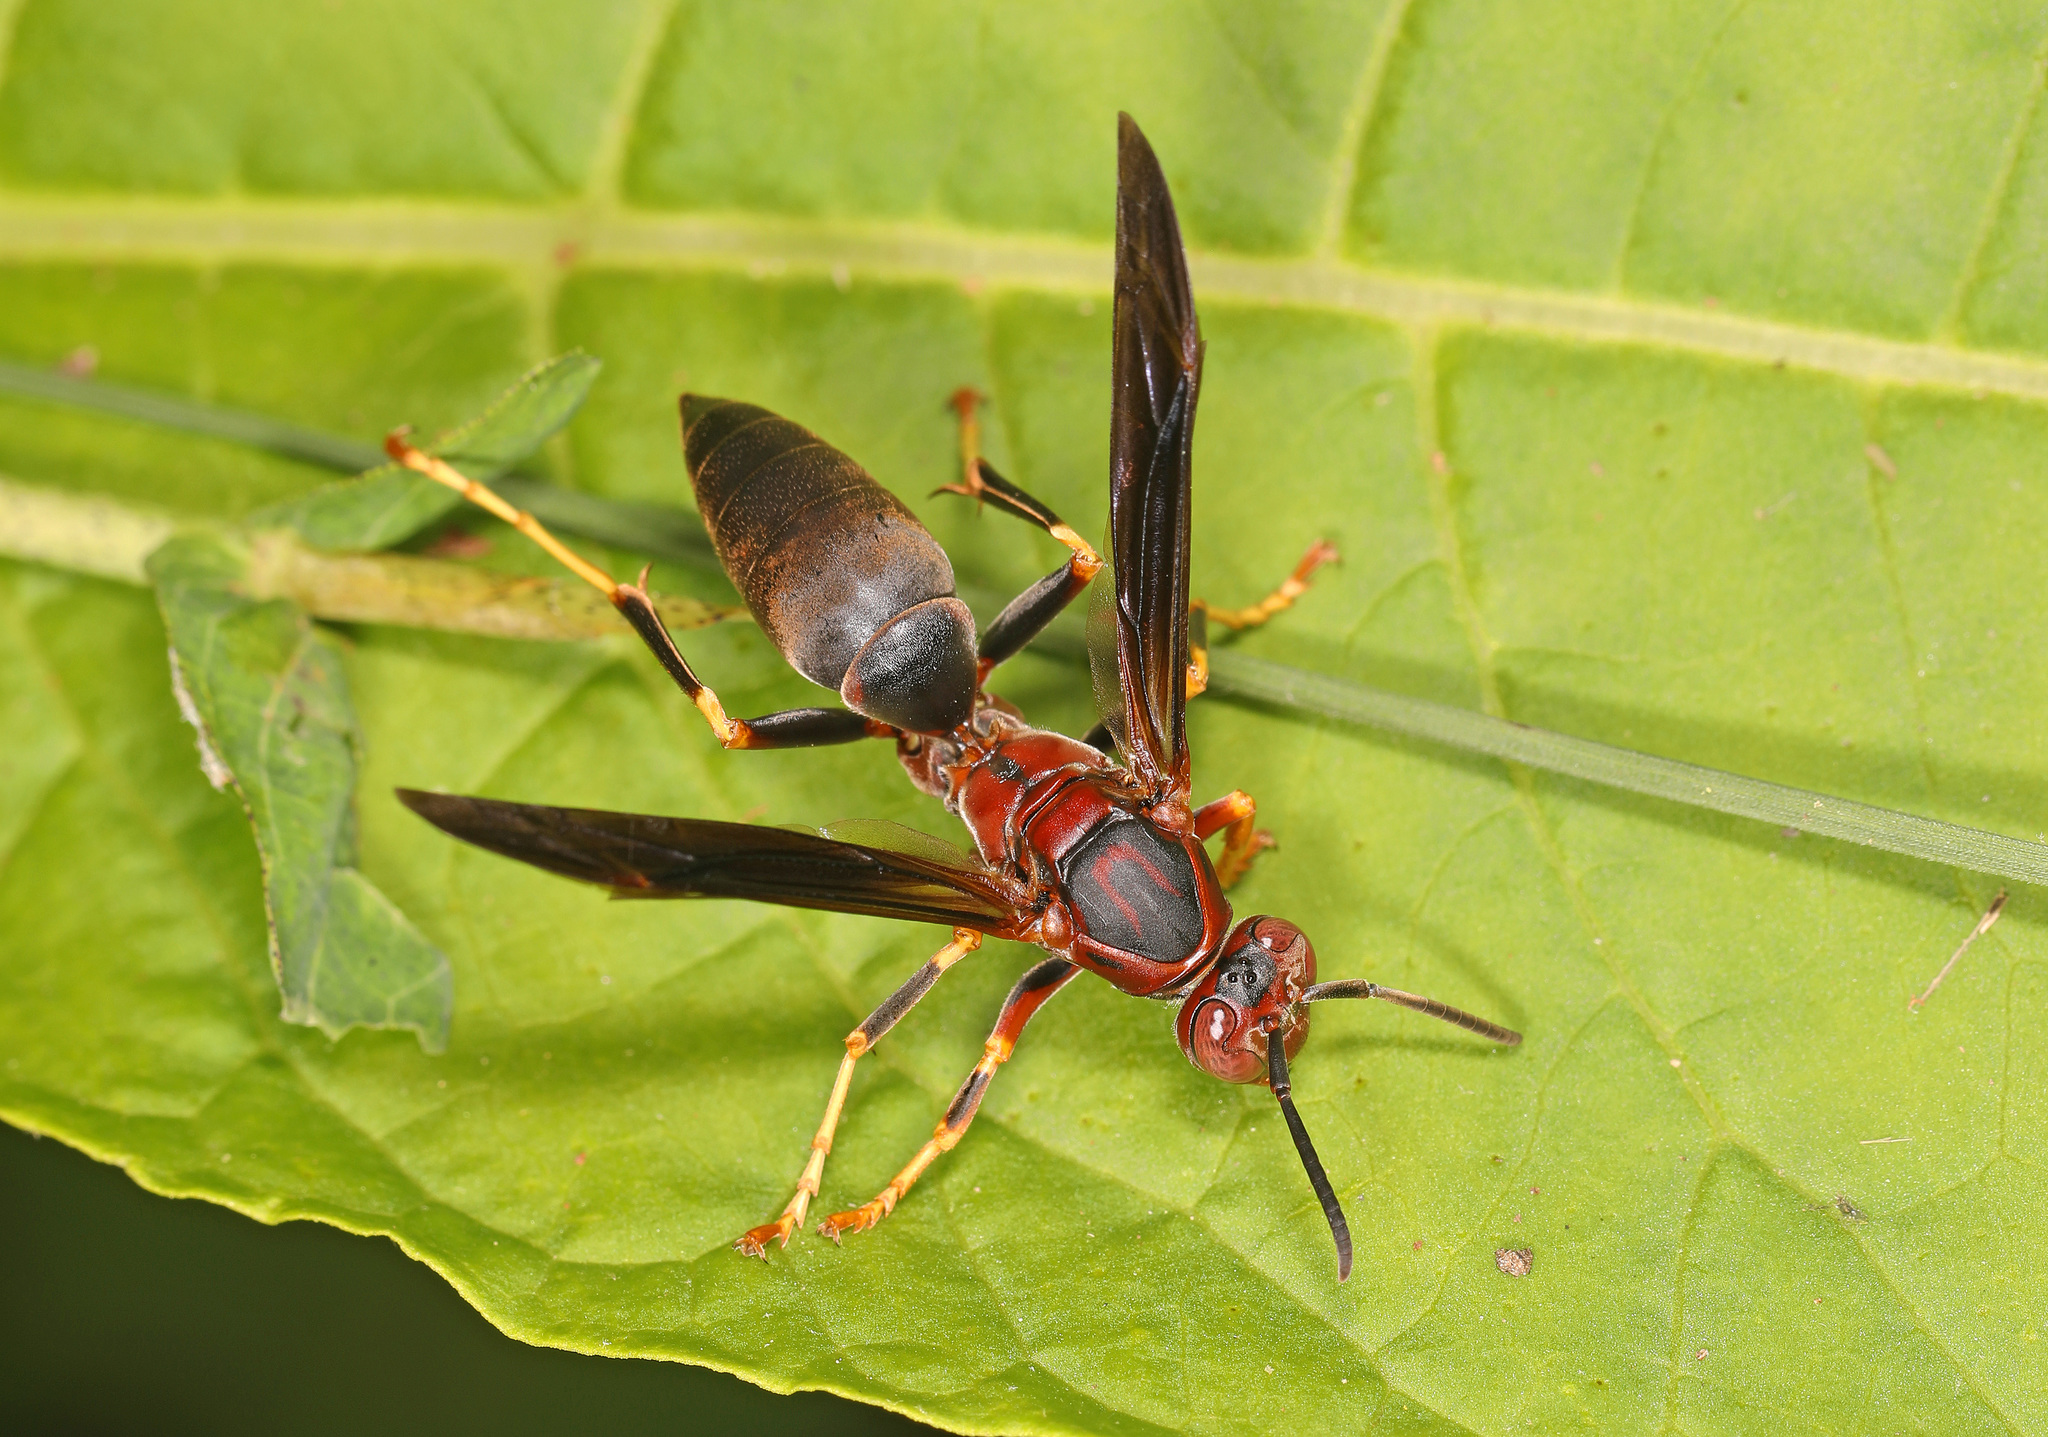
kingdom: Animalia
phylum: Arthropoda
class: Insecta
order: Hymenoptera
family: Eumenidae
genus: Polistes
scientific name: Polistes metricus
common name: Metric paper wasp
